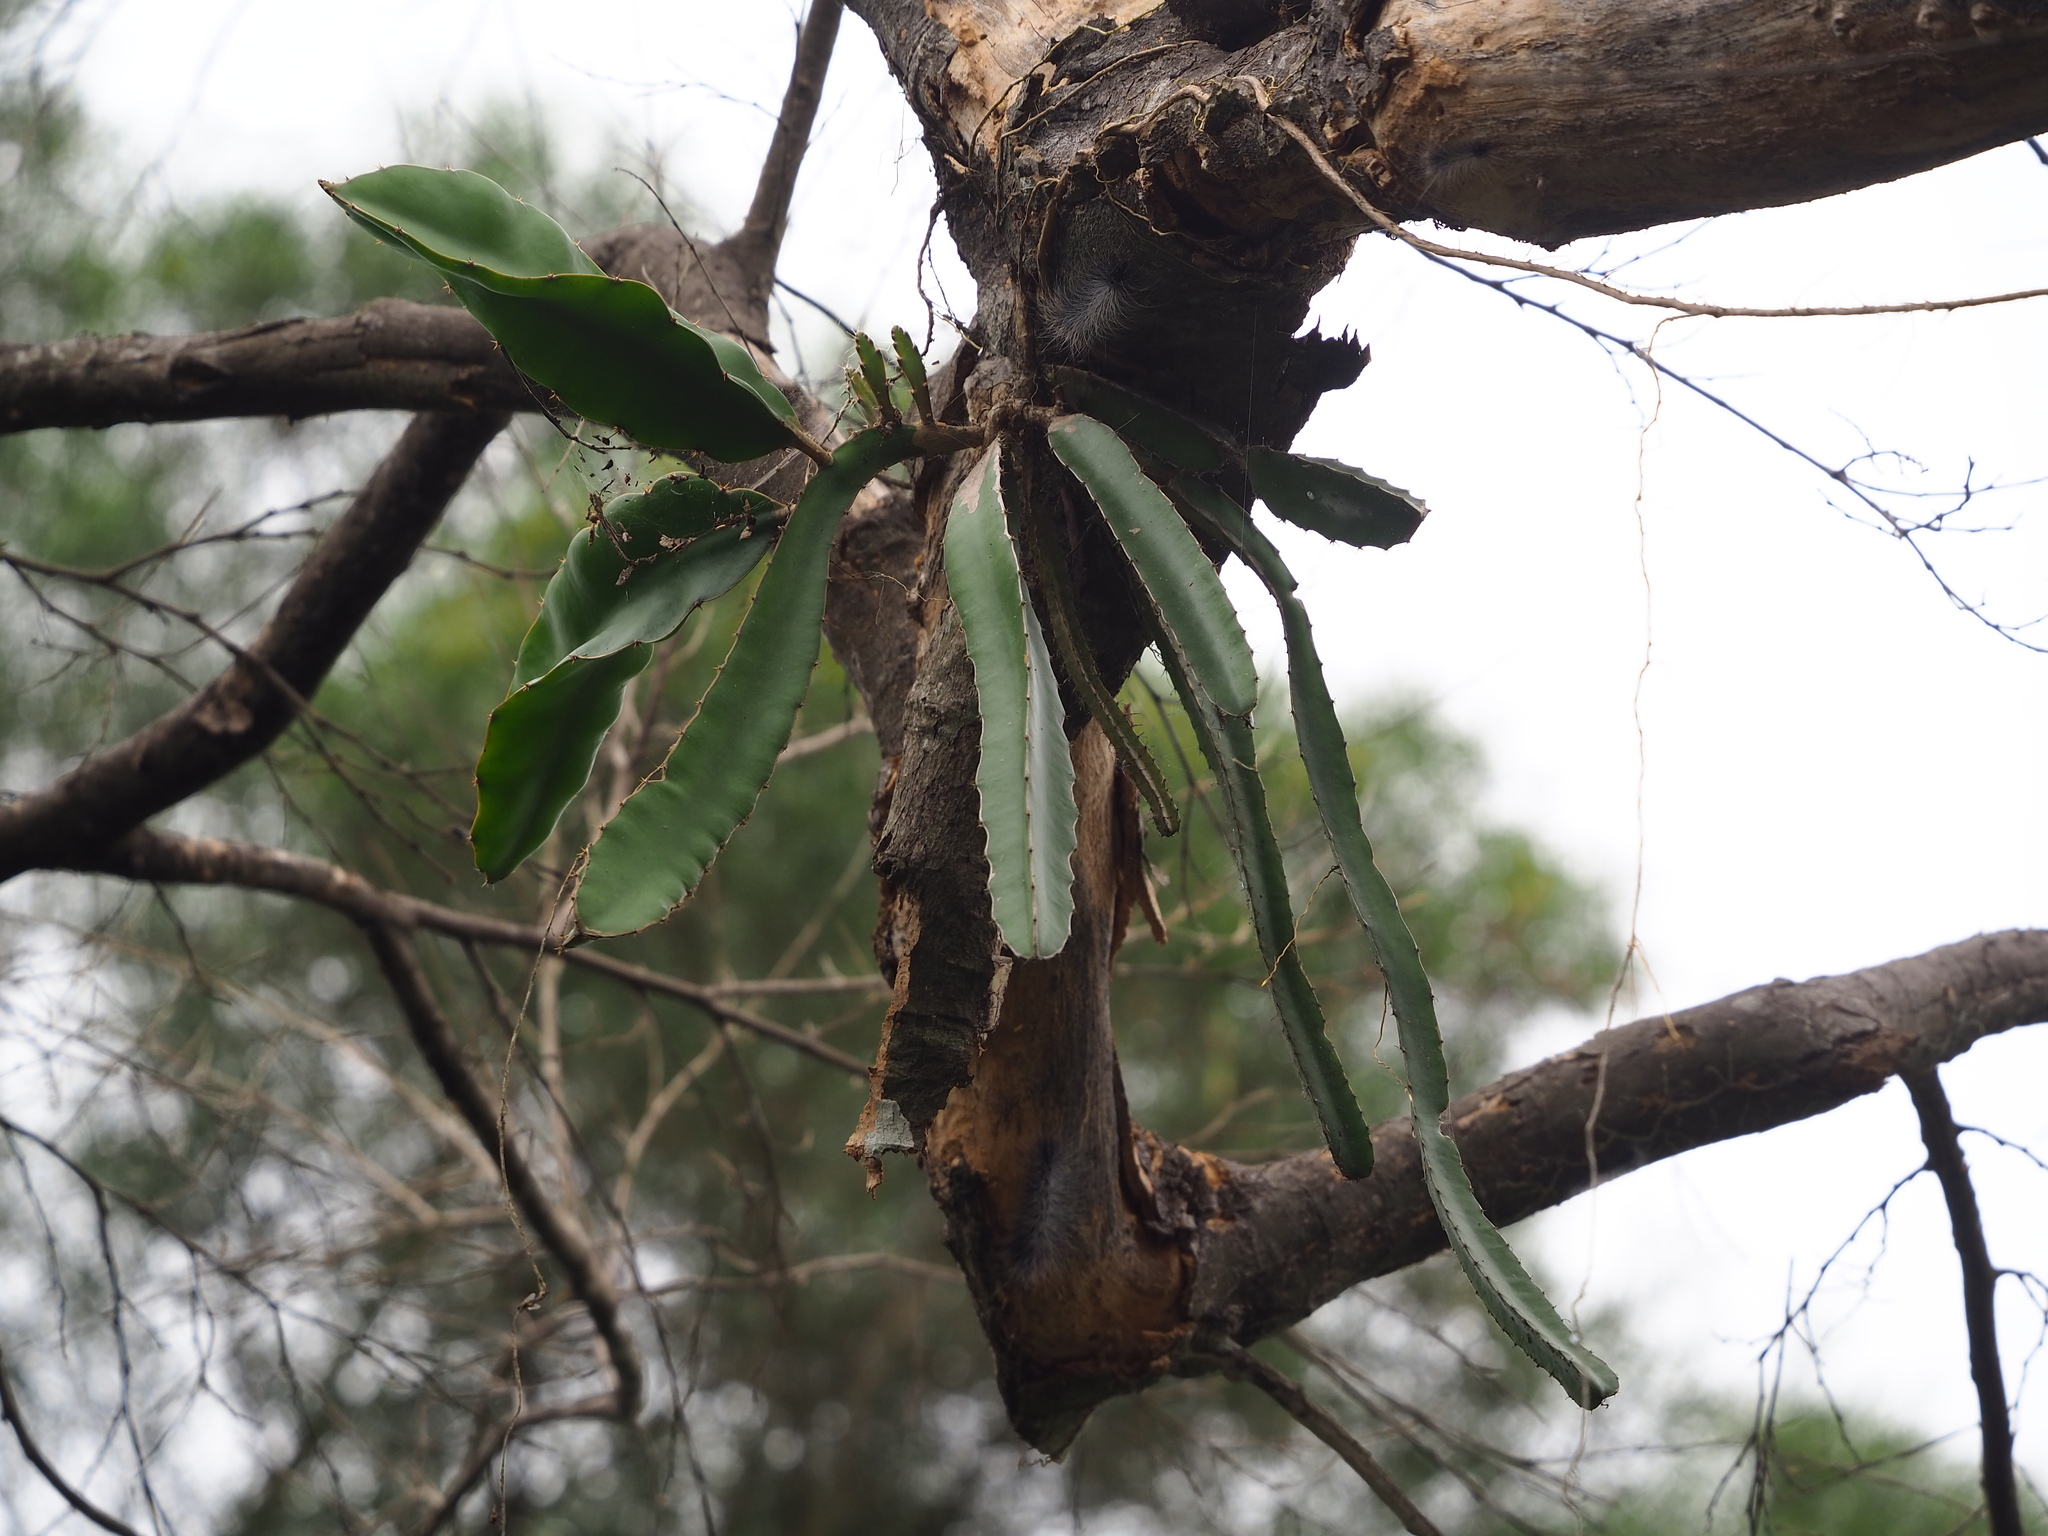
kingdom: Plantae
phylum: Tracheophyta
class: Magnoliopsida
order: Caryophyllales
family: Cactaceae
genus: Selenicereus
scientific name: Selenicereus undatus
